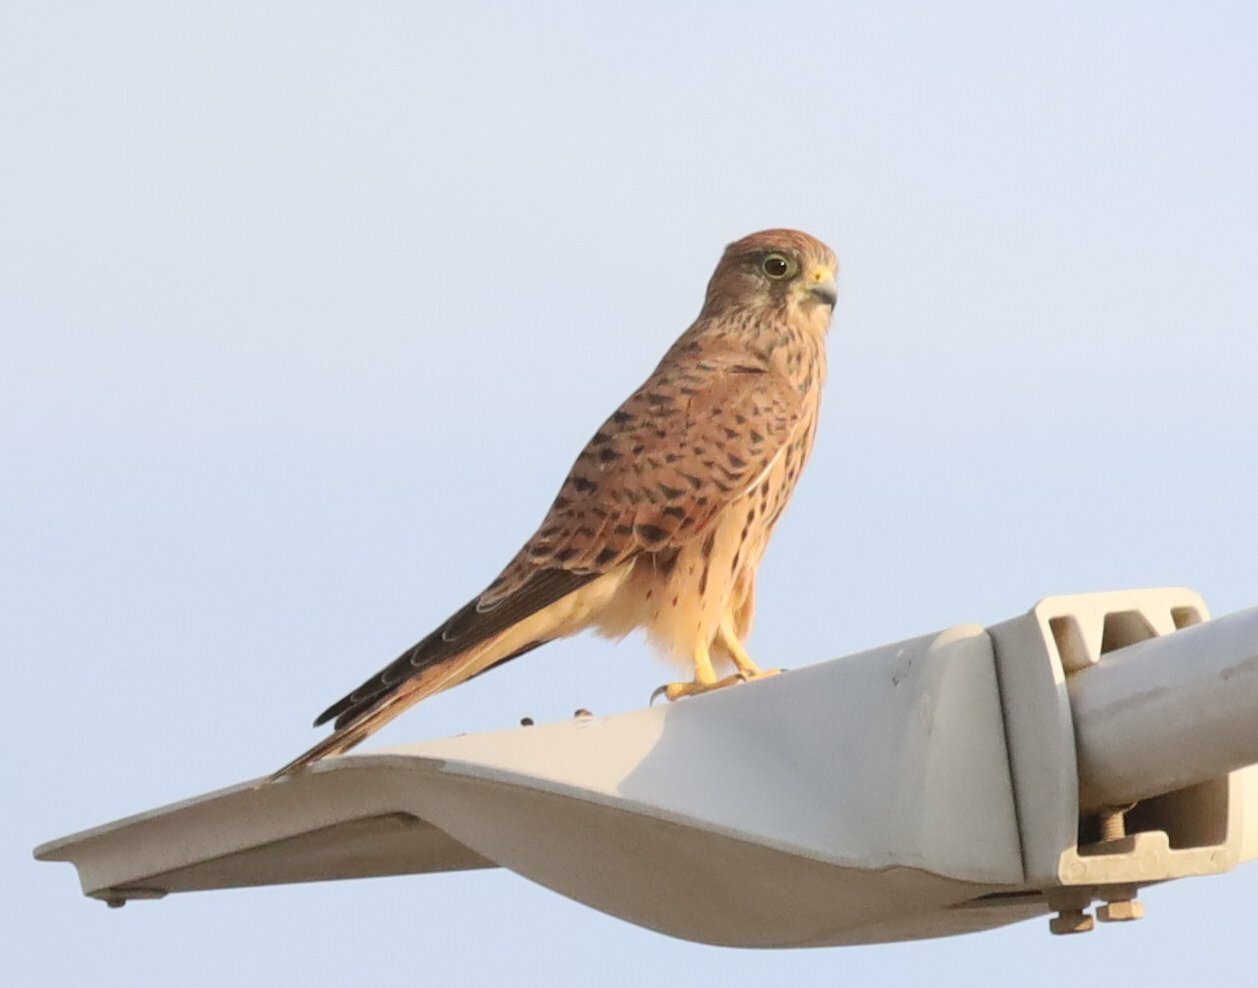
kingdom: Animalia
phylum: Chordata
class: Aves
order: Falconiformes
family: Falconidae
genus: Falco
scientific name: Falco tinnunculus
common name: Common kestrel
